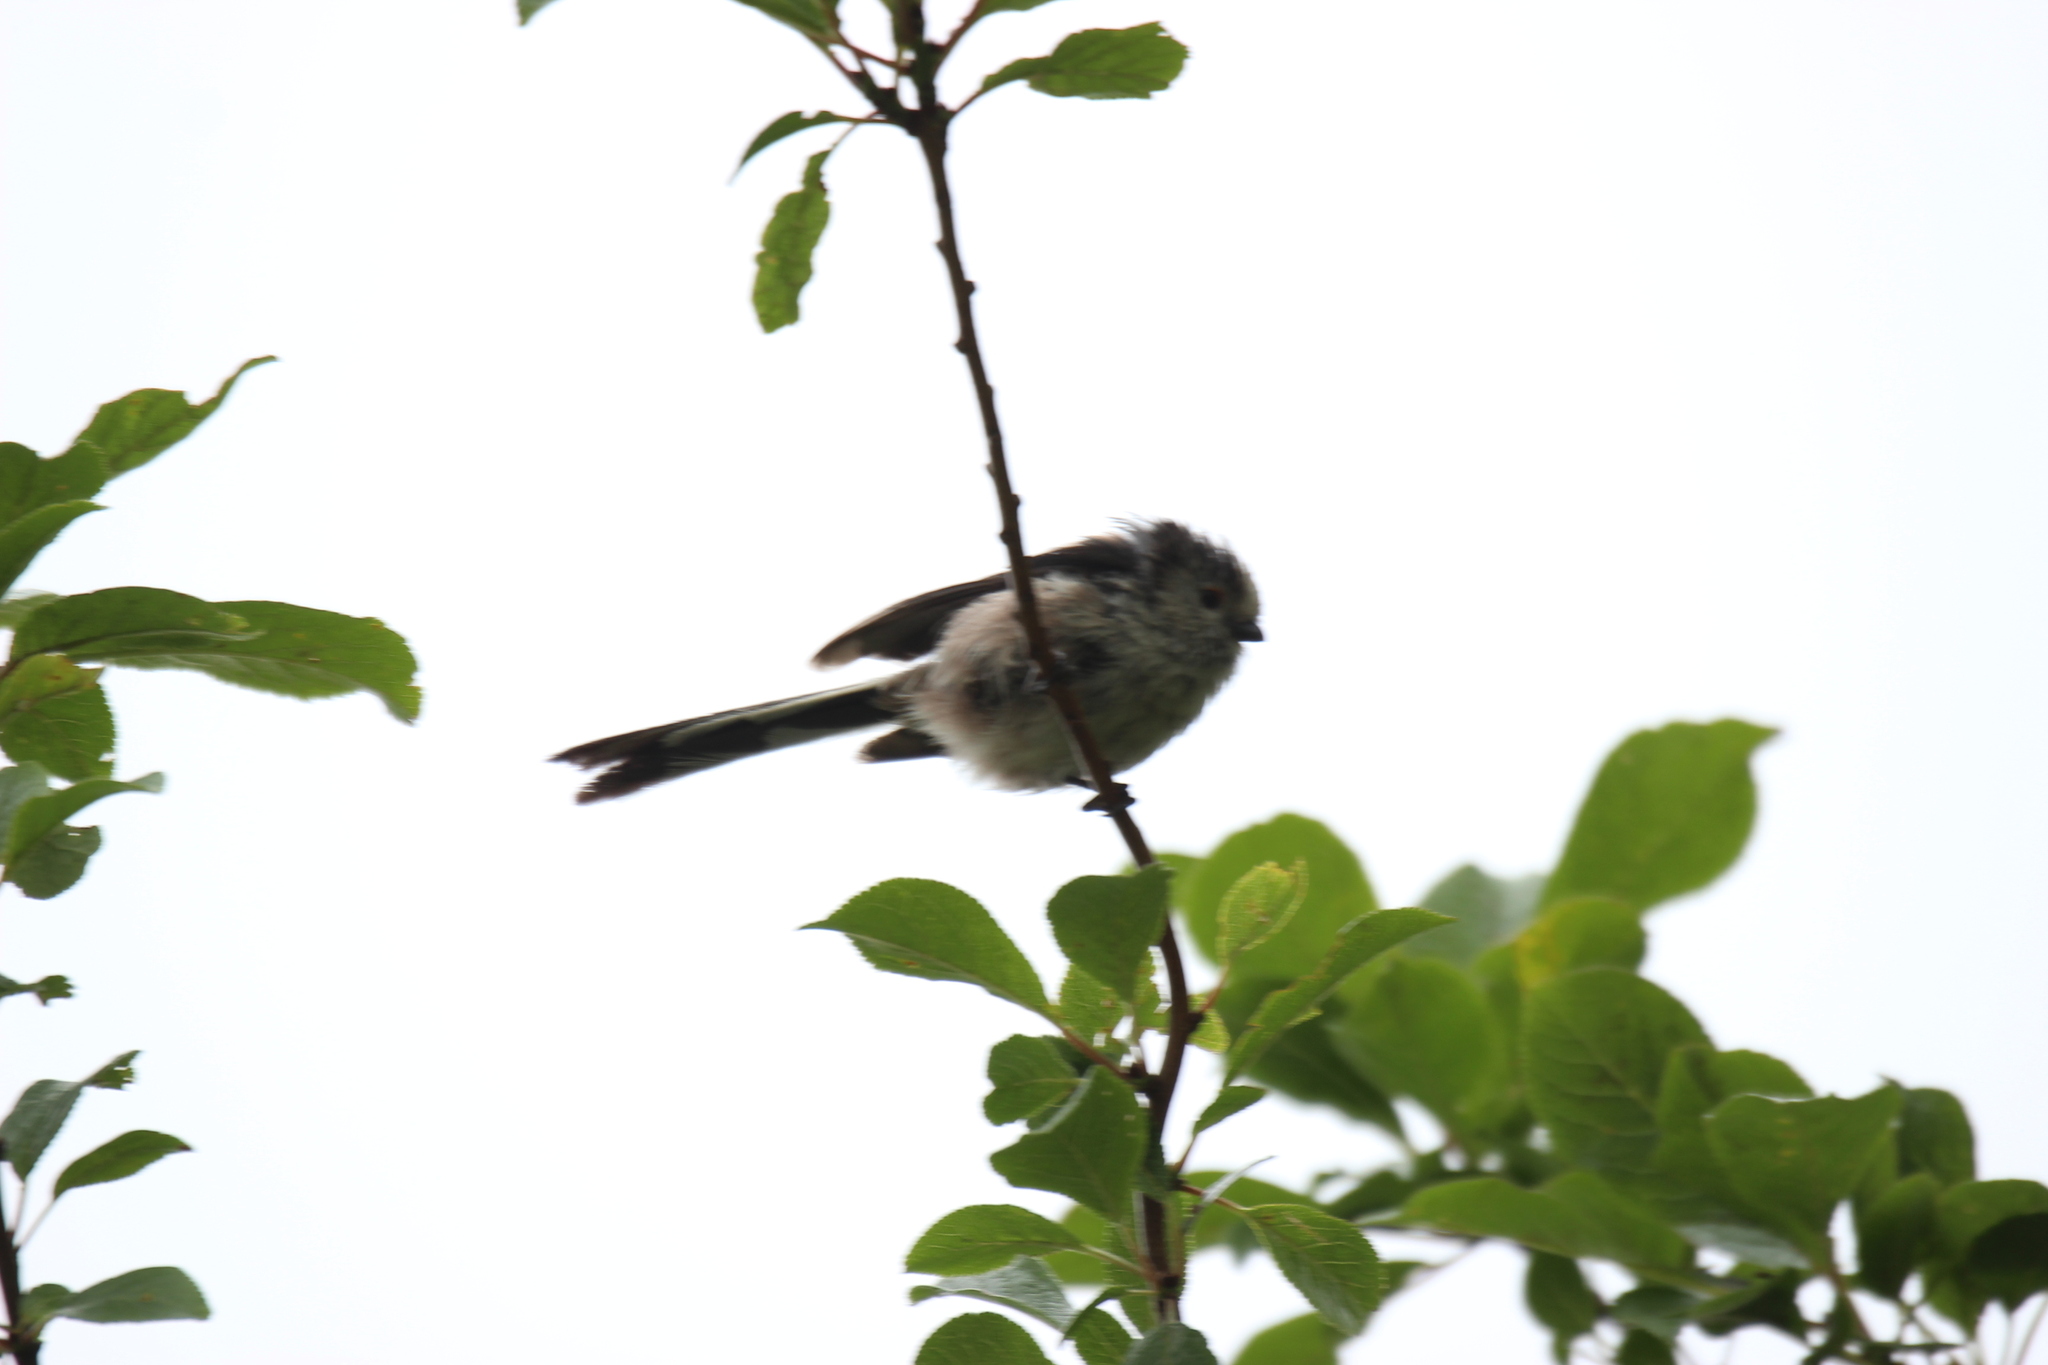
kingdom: Animalia
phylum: Chordata
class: Aves
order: Passeriformes
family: Aegithalidae
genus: Aegithalos
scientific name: Aegithalos caudatus
